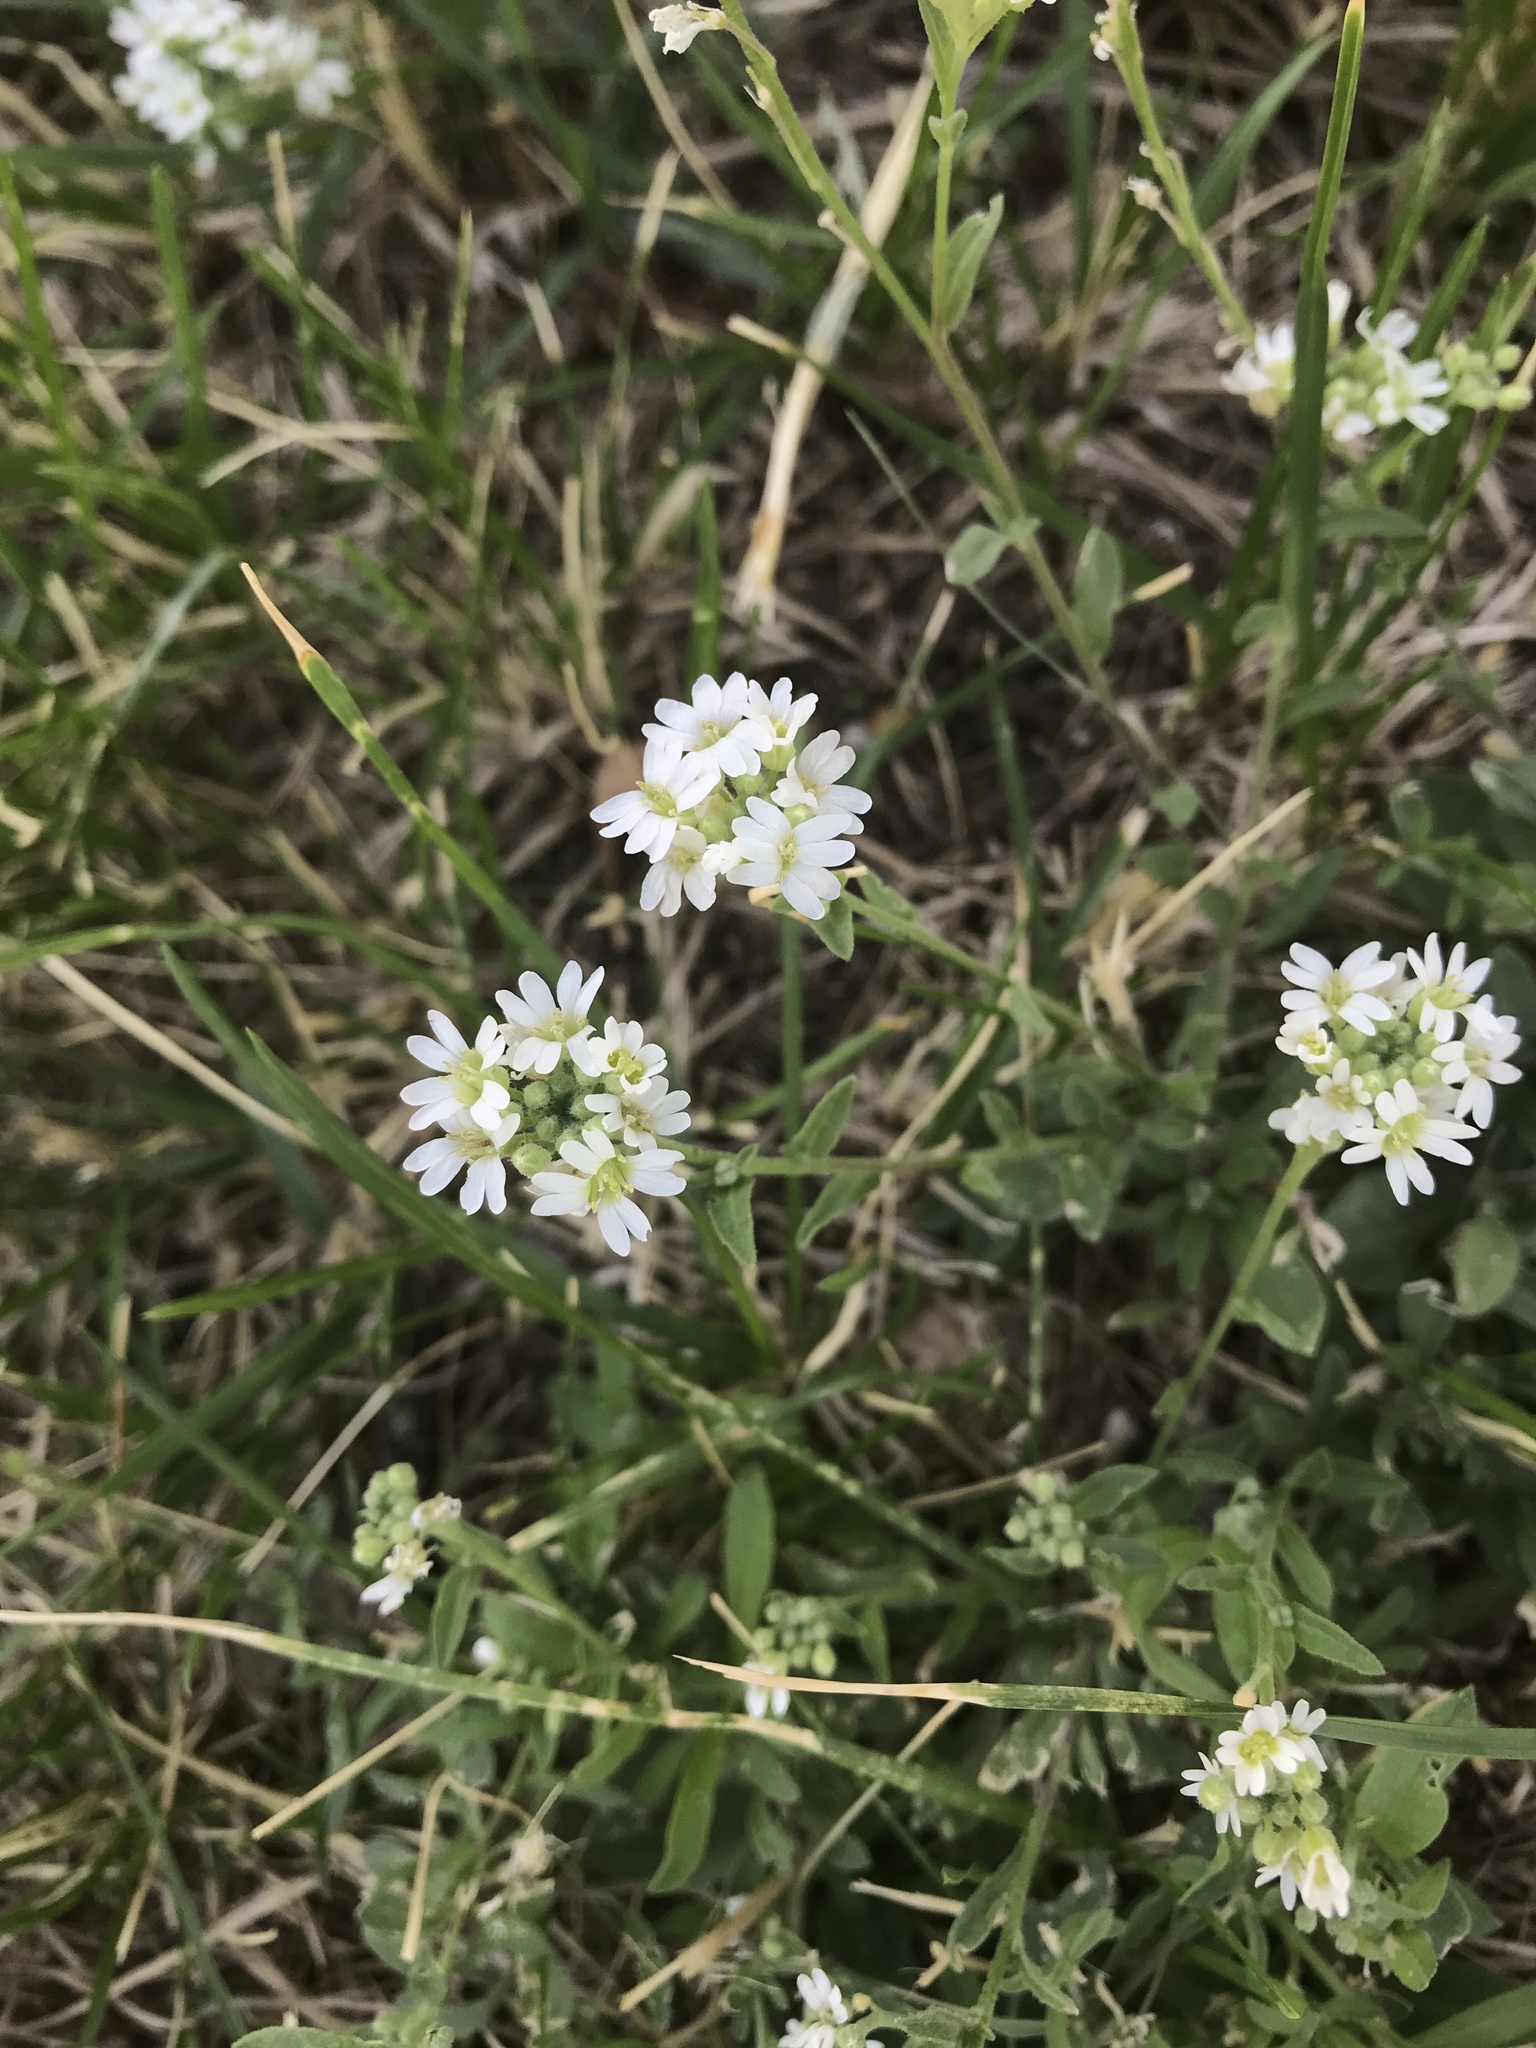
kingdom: Plantae
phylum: Tracheophyta
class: Magnoliopsida
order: Brassicales
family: Brassicaceae
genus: Berteroa
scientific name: Berteroa incana
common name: Hoary alison
